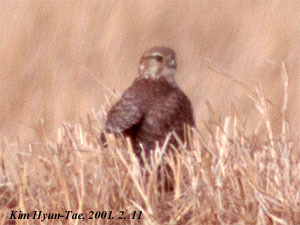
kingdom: Animalia
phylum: Chordata
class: Aves
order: Falconiformes
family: Falconidae
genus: Falco
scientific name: Falco columbarius
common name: Merlin
